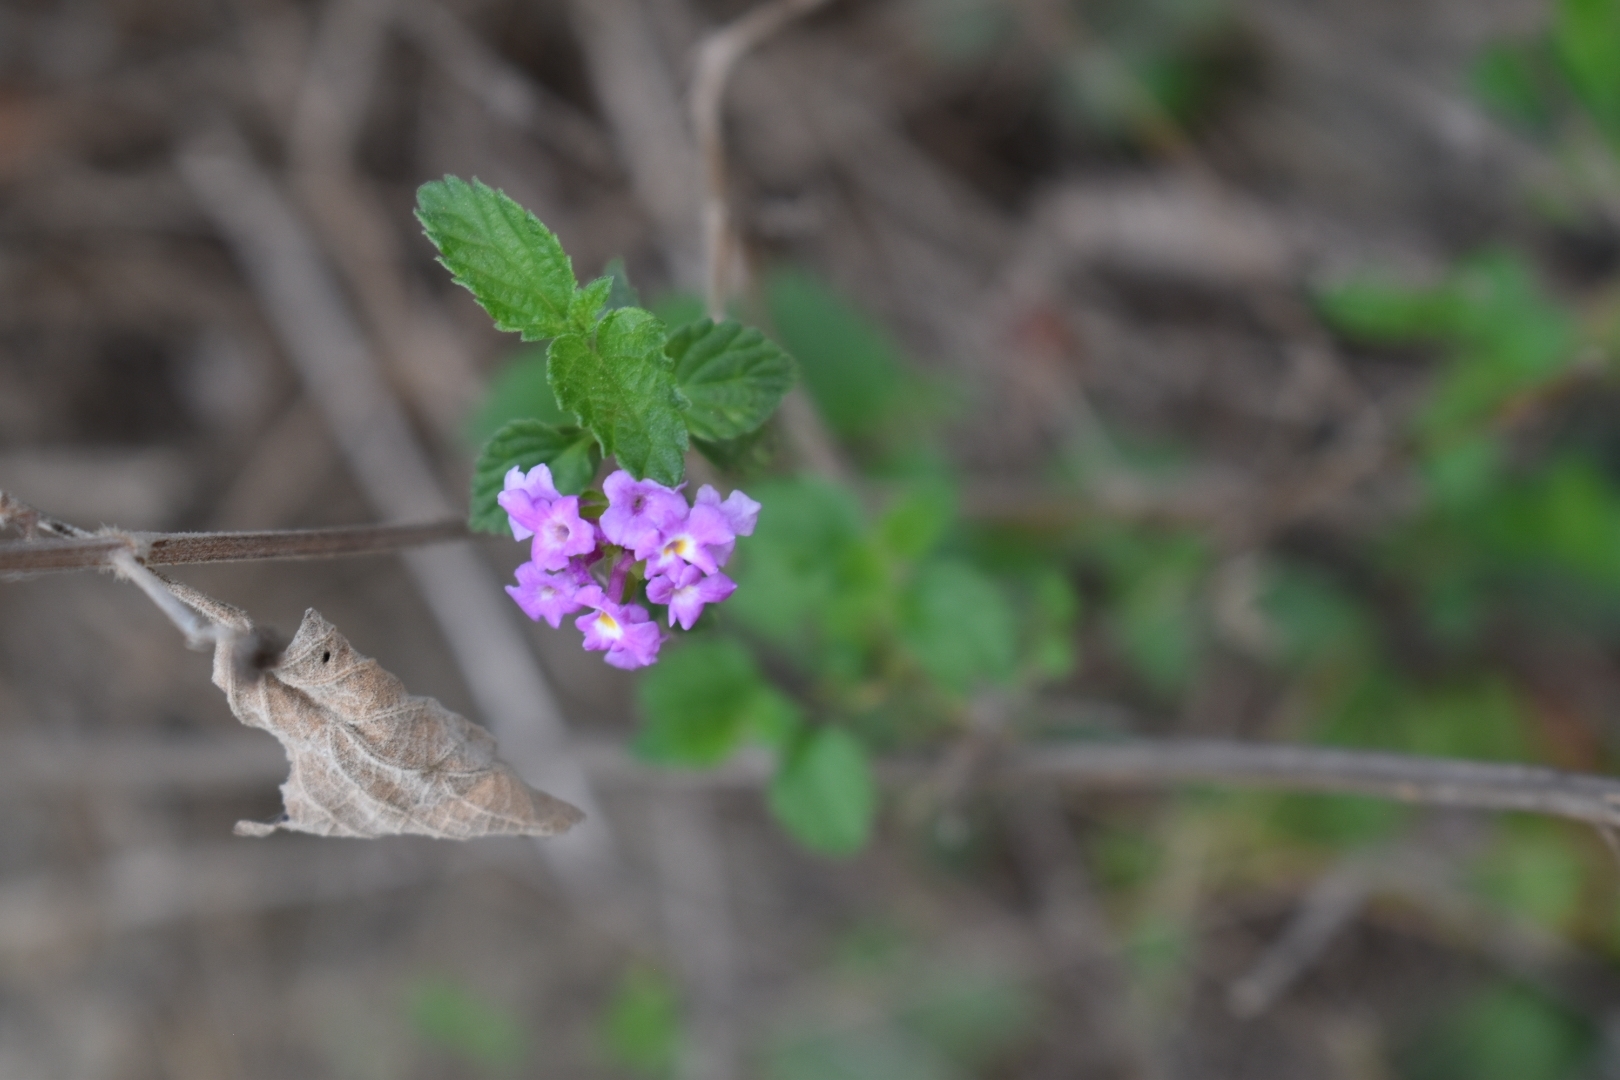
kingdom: Plantae
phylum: Tracheophyta
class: Magnoliopsida
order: Lamiales
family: Verbenaceae
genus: Lantana
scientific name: Lantana montevidensis
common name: Trailing shrubverbena
